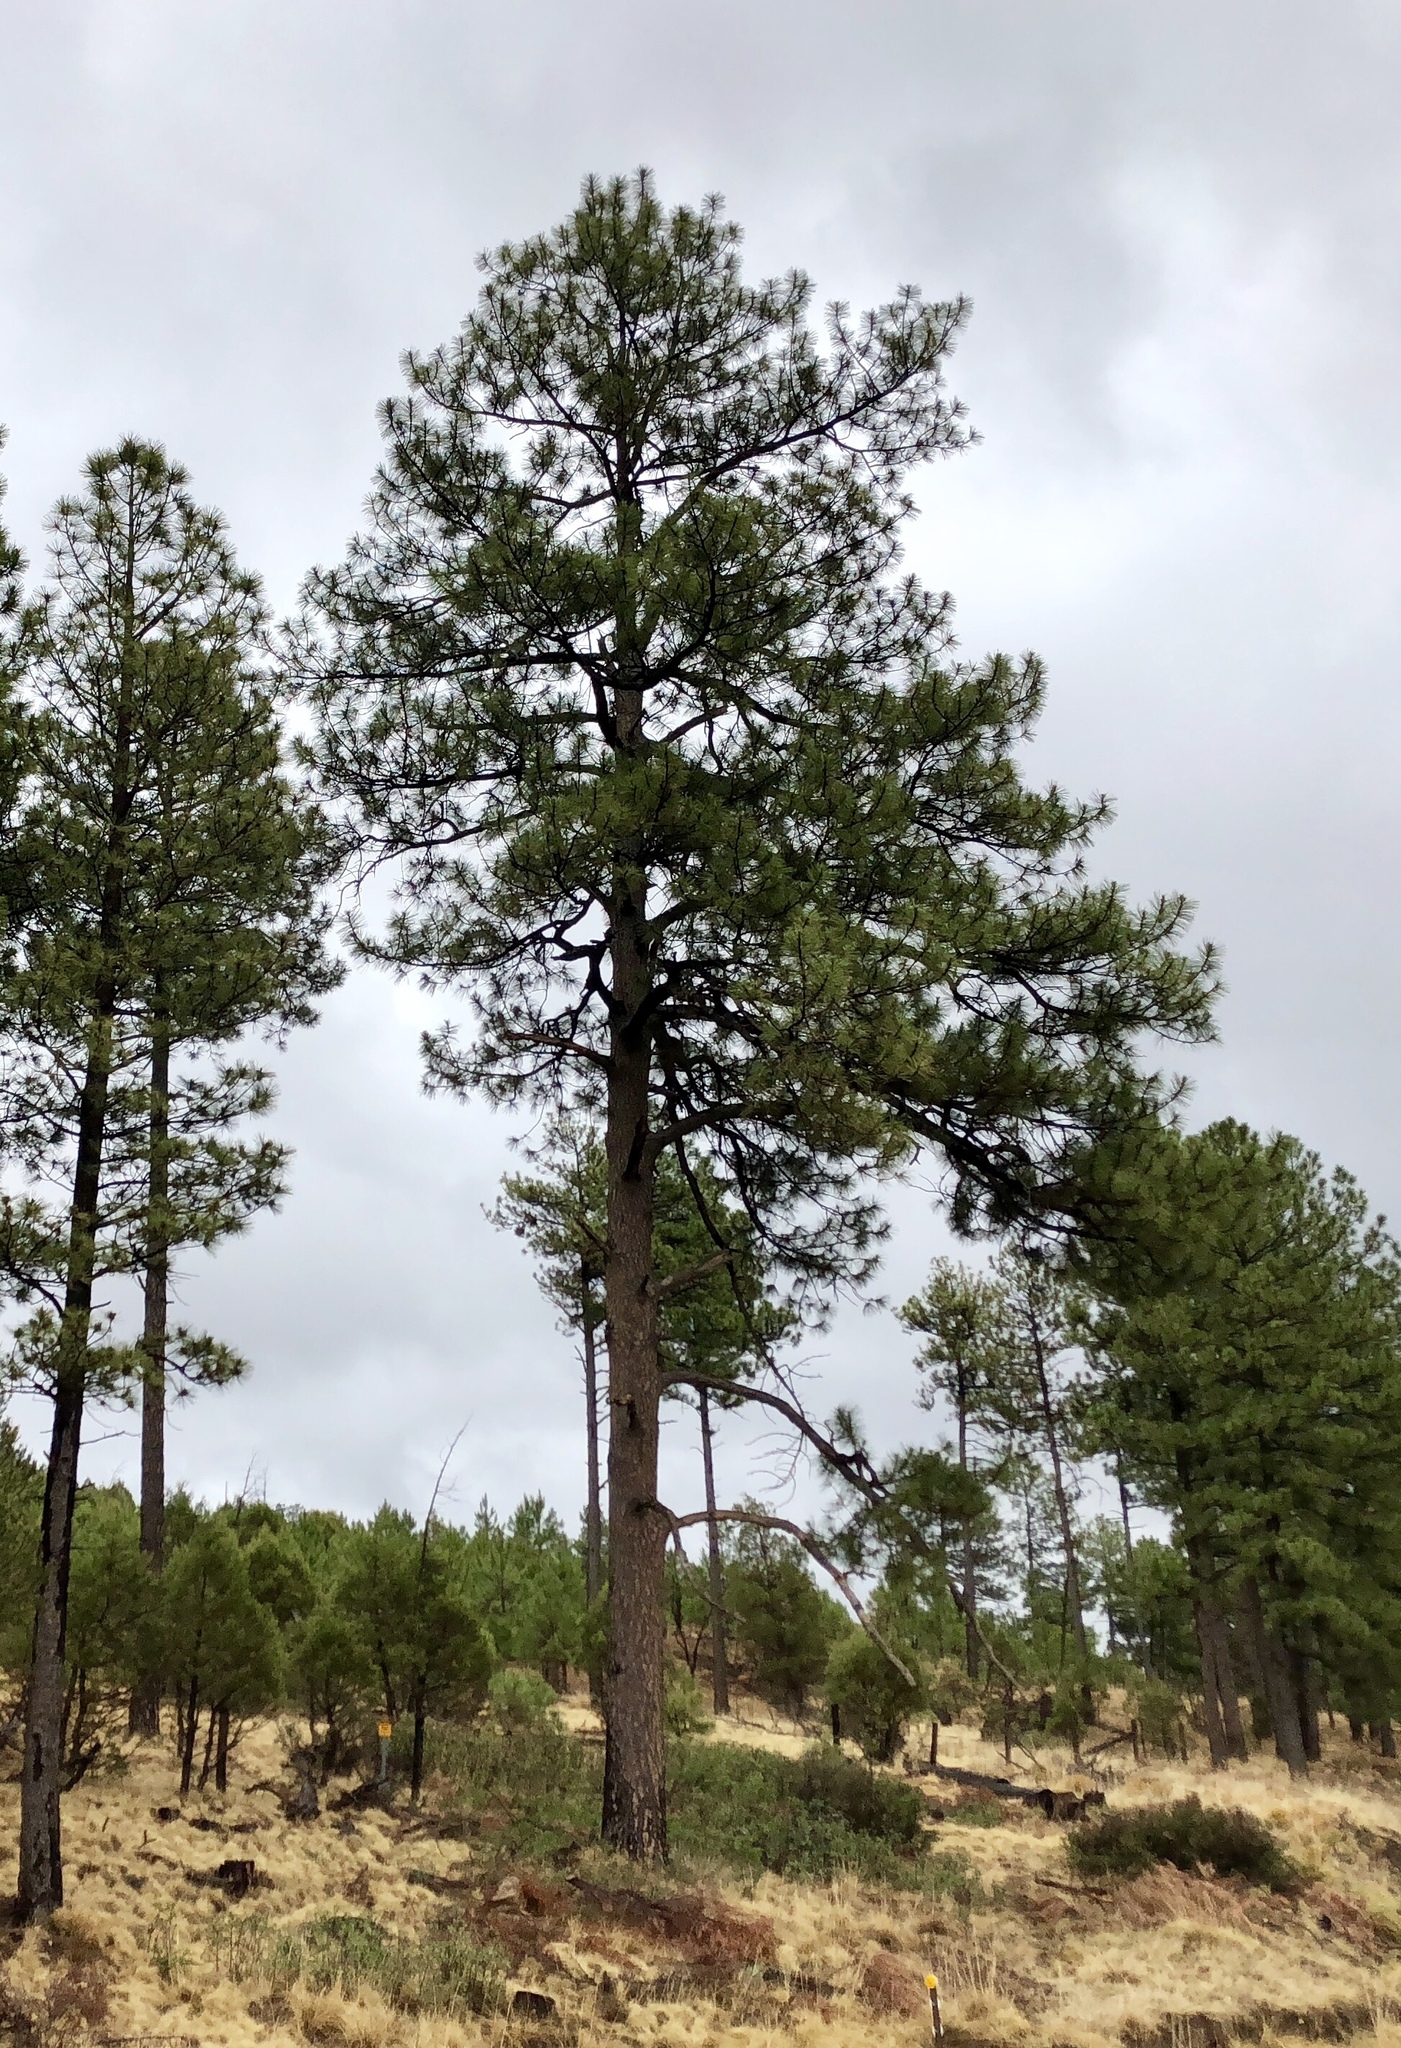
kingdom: Plantae
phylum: Tracheophyta
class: Pinopsida
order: Pinales
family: Pinaceae
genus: Pinus
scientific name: Pinus ponderosa
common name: Western yellow-pine
